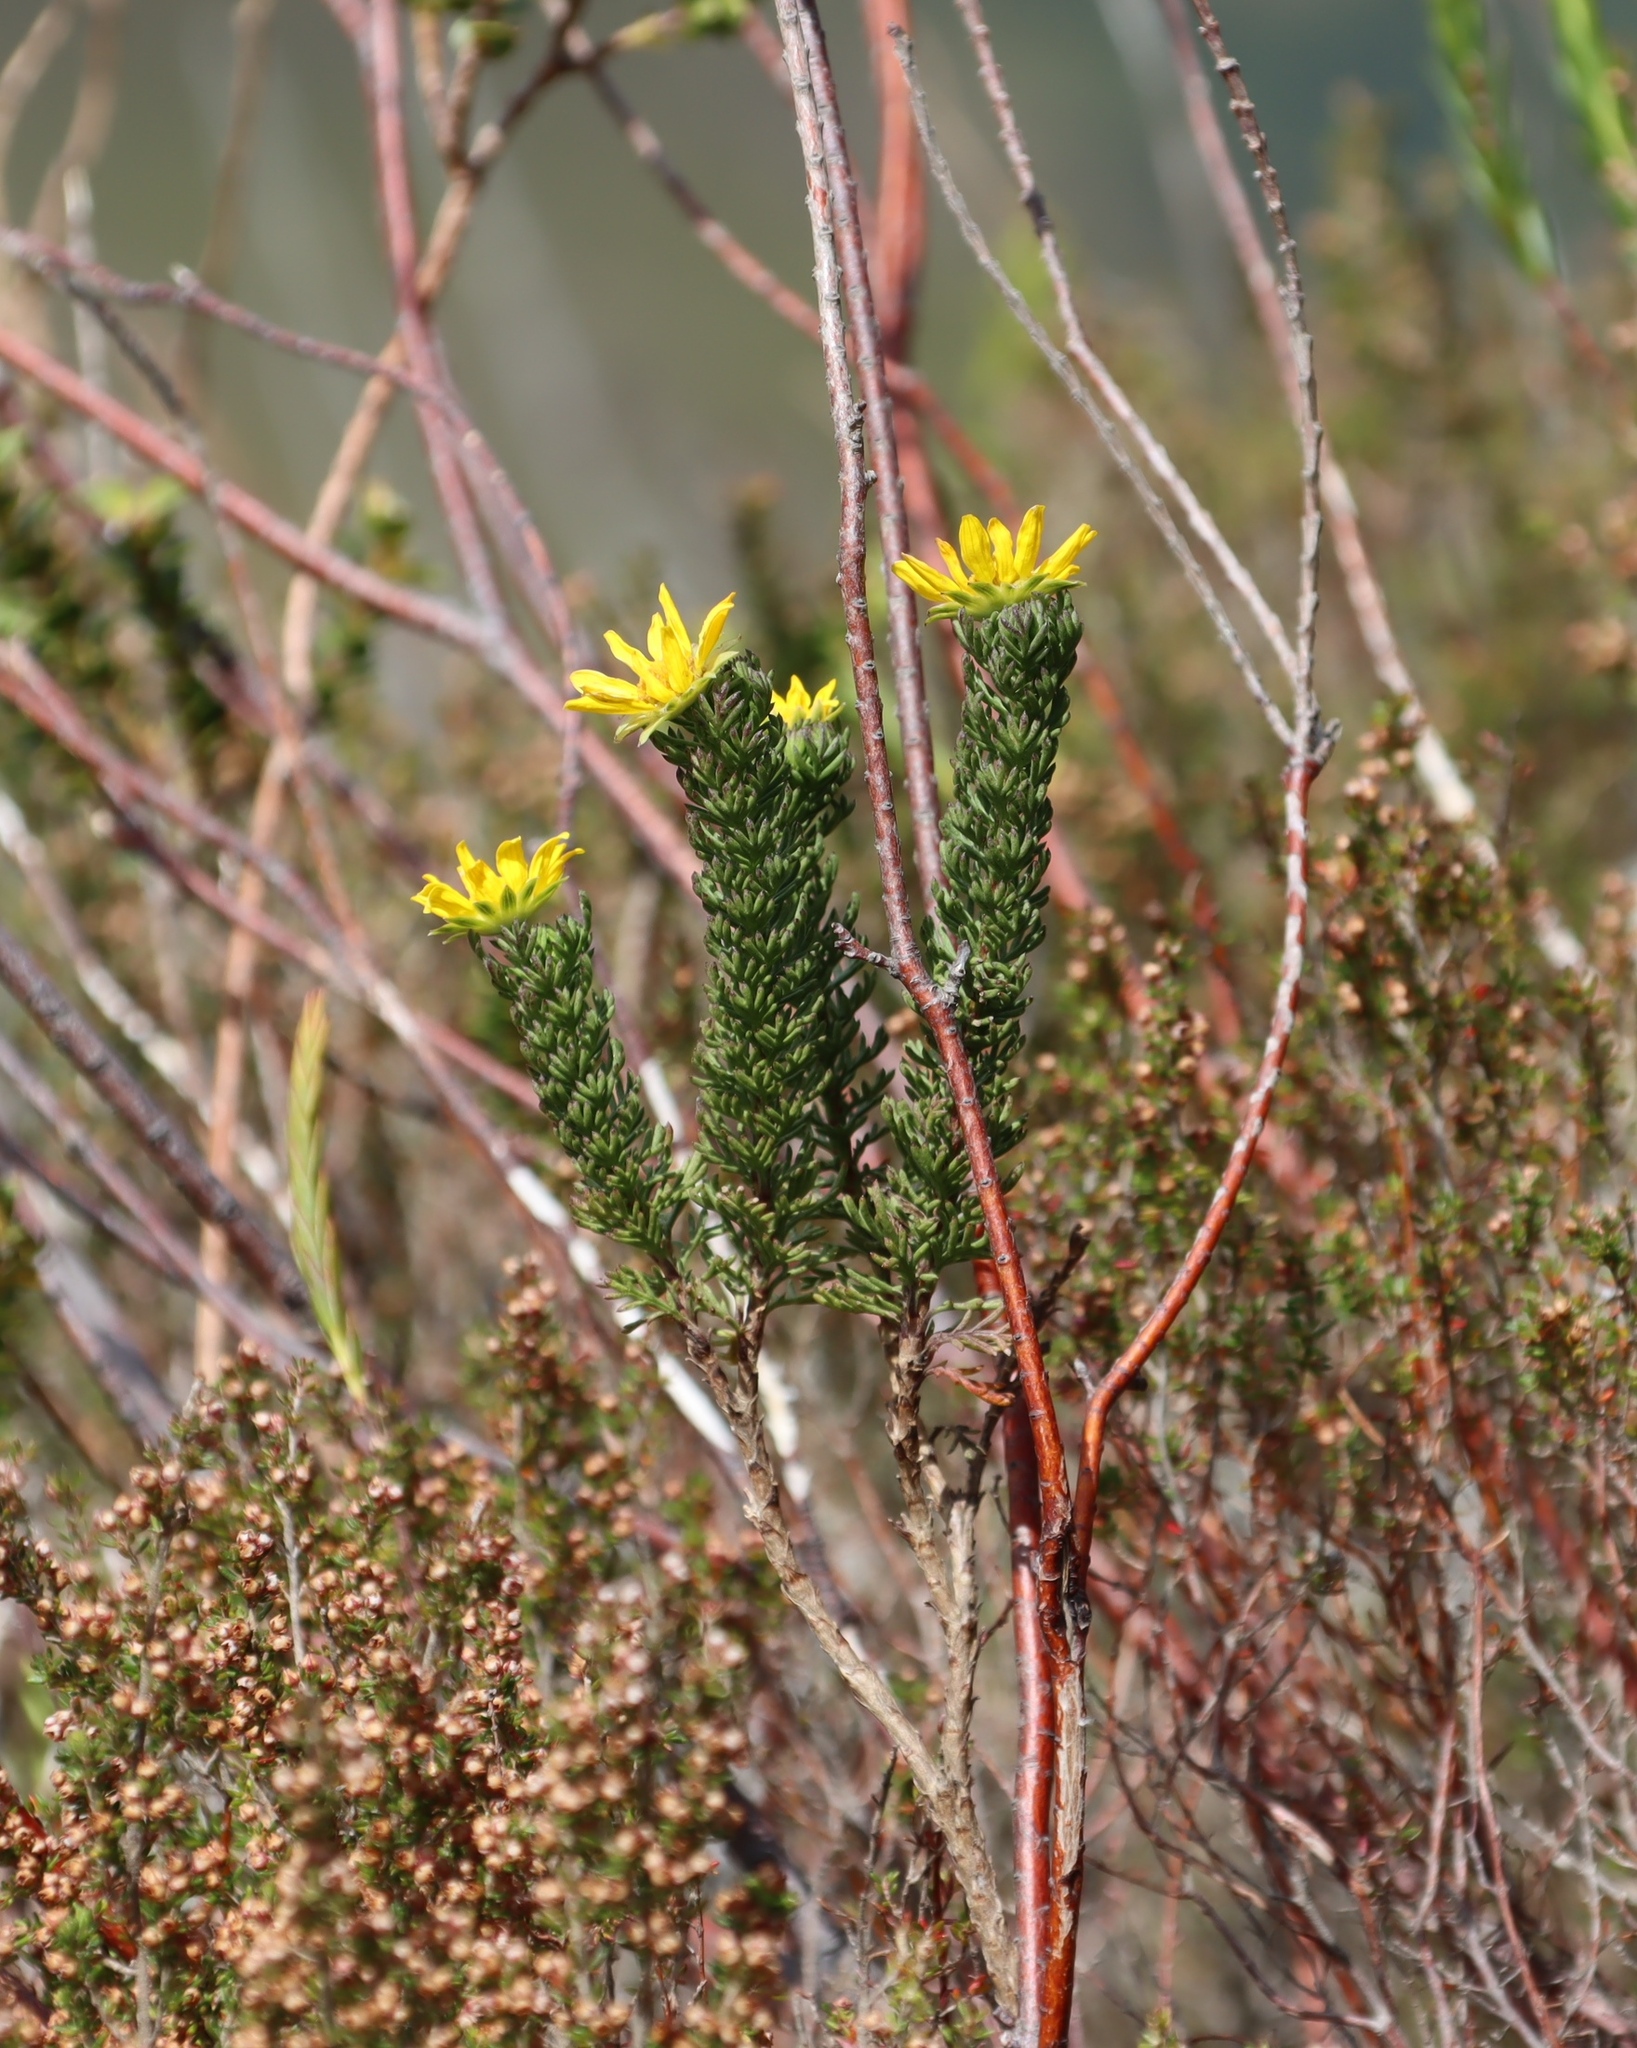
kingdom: Plantae
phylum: Tracheophyta
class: Magnoliopsida
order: Asterales
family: Asteraceae
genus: Euryops
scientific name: Euryops abrotanifolius
